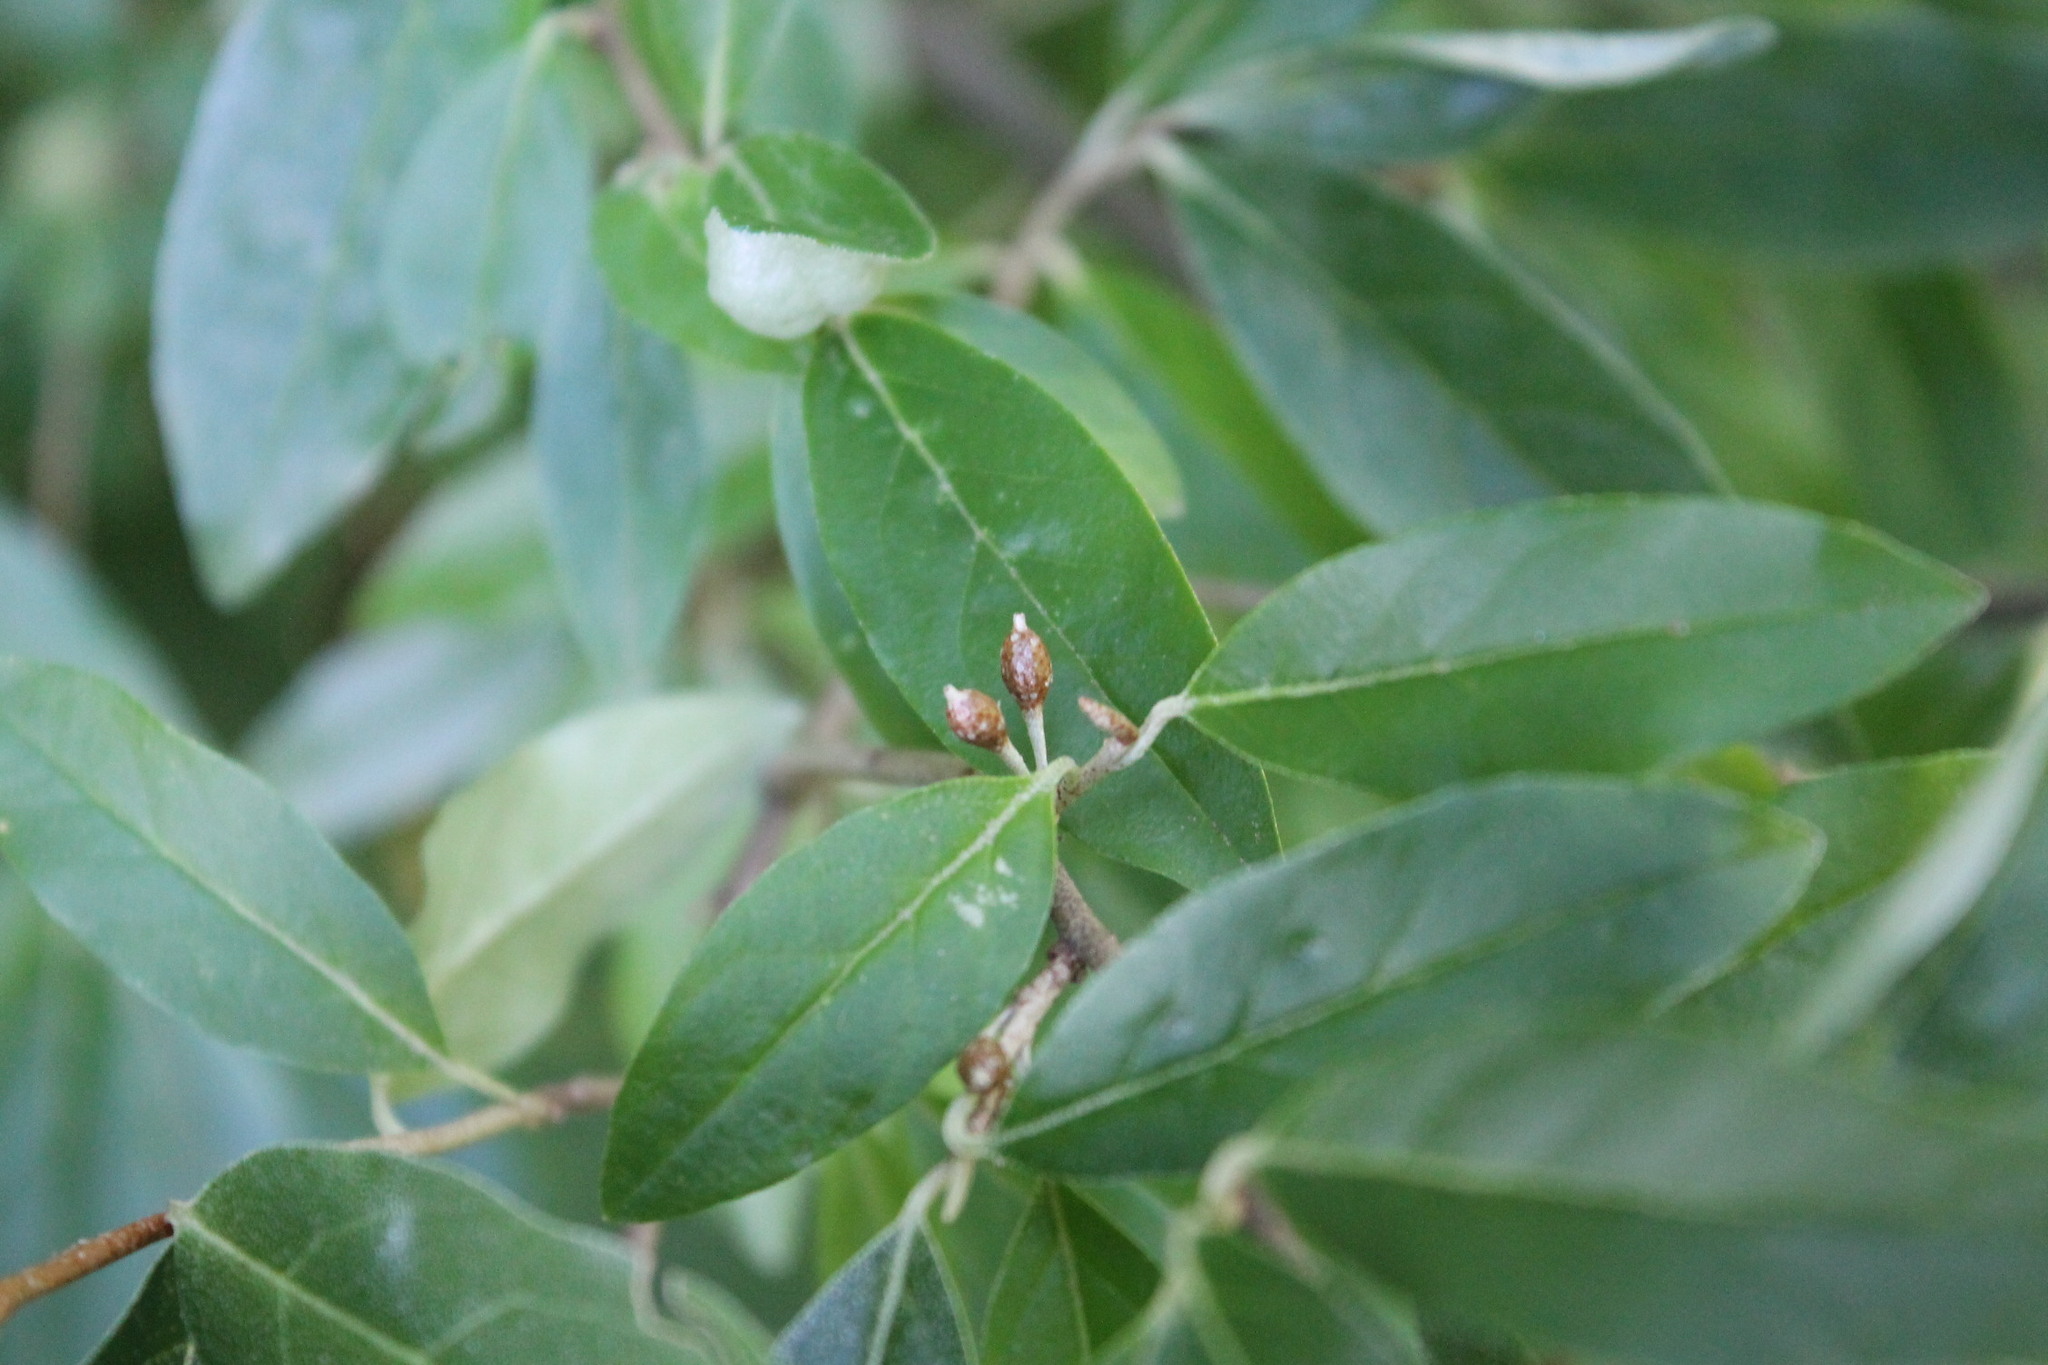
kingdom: Plantae
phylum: Tracheophyta
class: Magnoliopsida
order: Rosales
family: Elaeagnaceae
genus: Elaeagnus
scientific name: Elaeagnus umbellata
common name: Autumn olive
